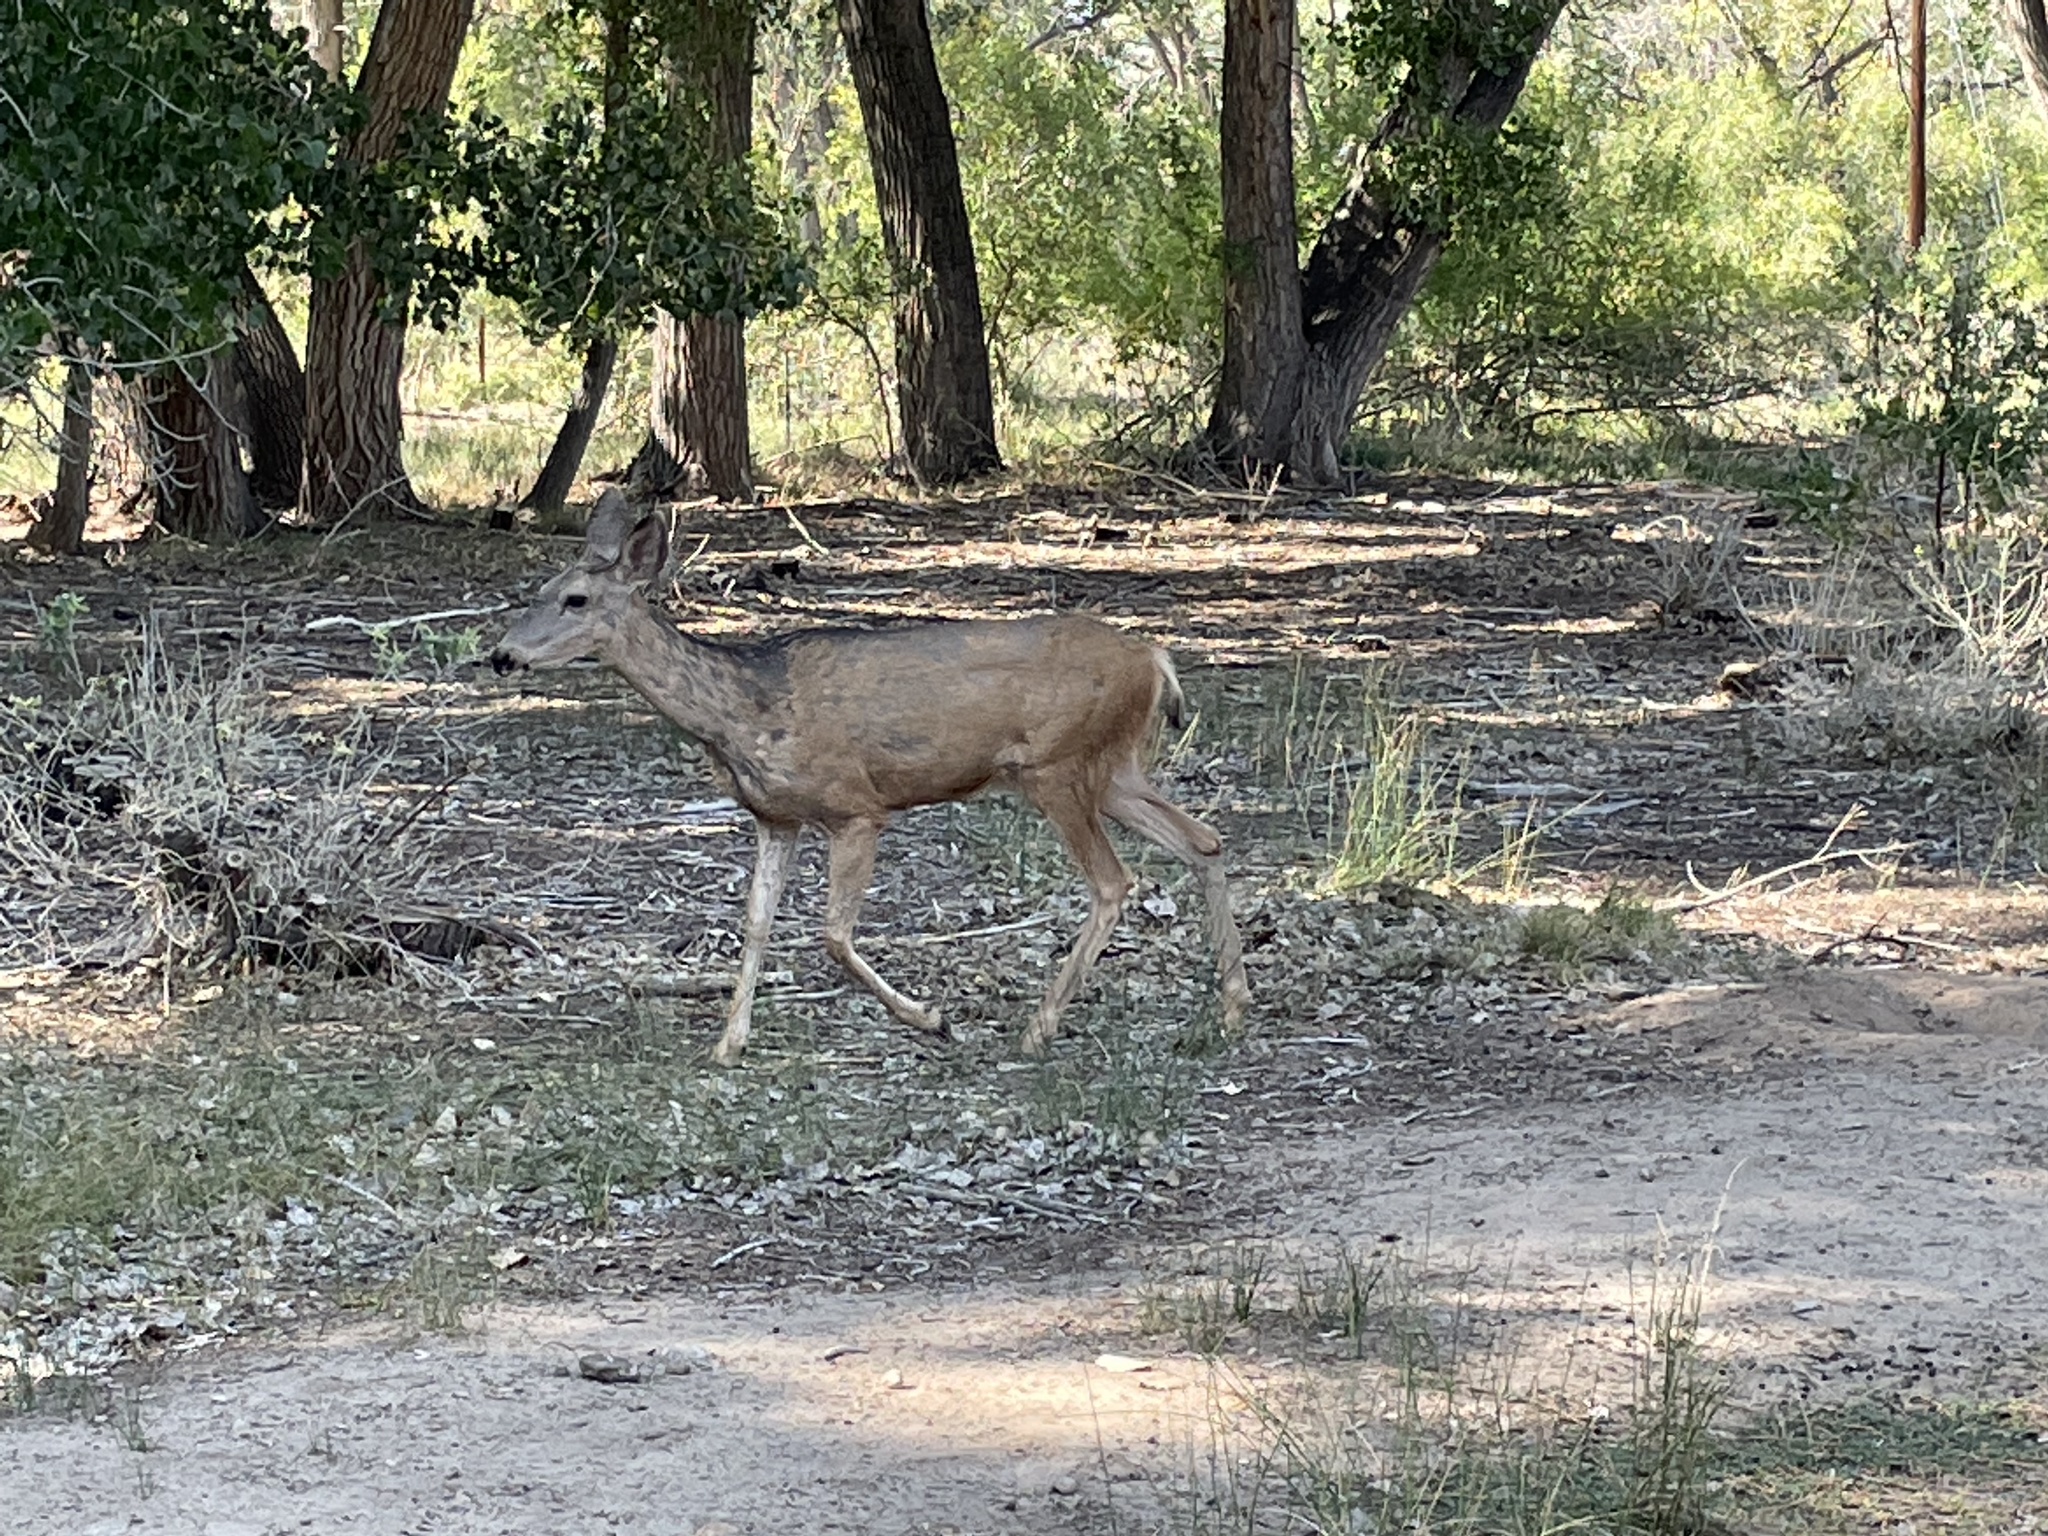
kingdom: Animalia
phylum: Chordata
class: Mammalia
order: Artiodactyla
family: Cervidae
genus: Odocoileus
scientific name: Odocoileus hemionus
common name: Mule deer
